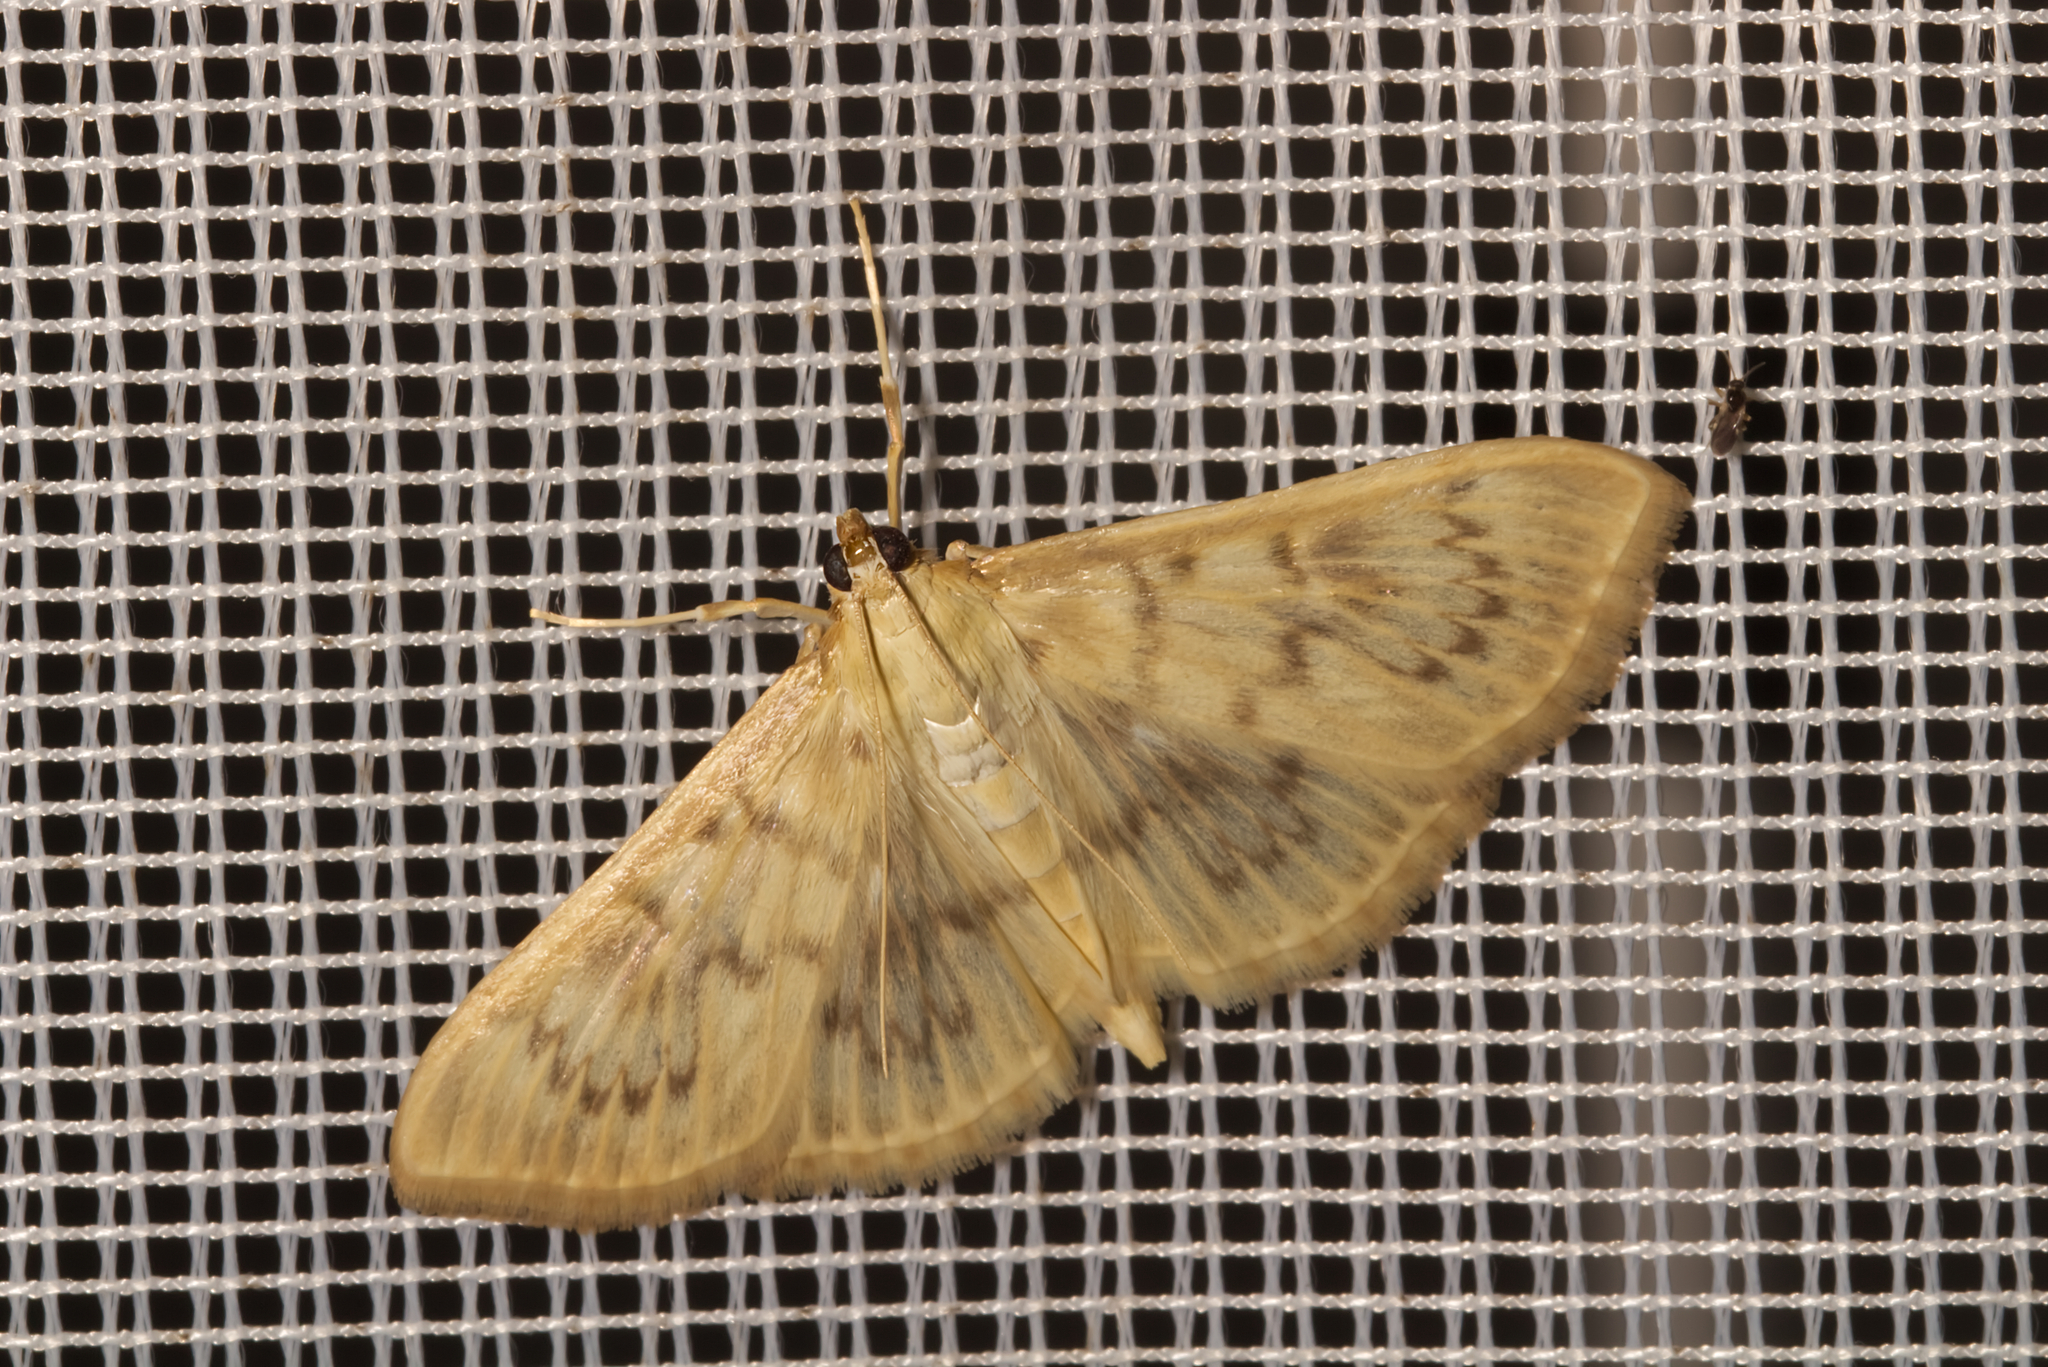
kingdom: Animalia
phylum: Arthropoda
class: Insecta
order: Lepidoptera
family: Crambidae
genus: Patania
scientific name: Patania ruralis
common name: Mother of pearl
